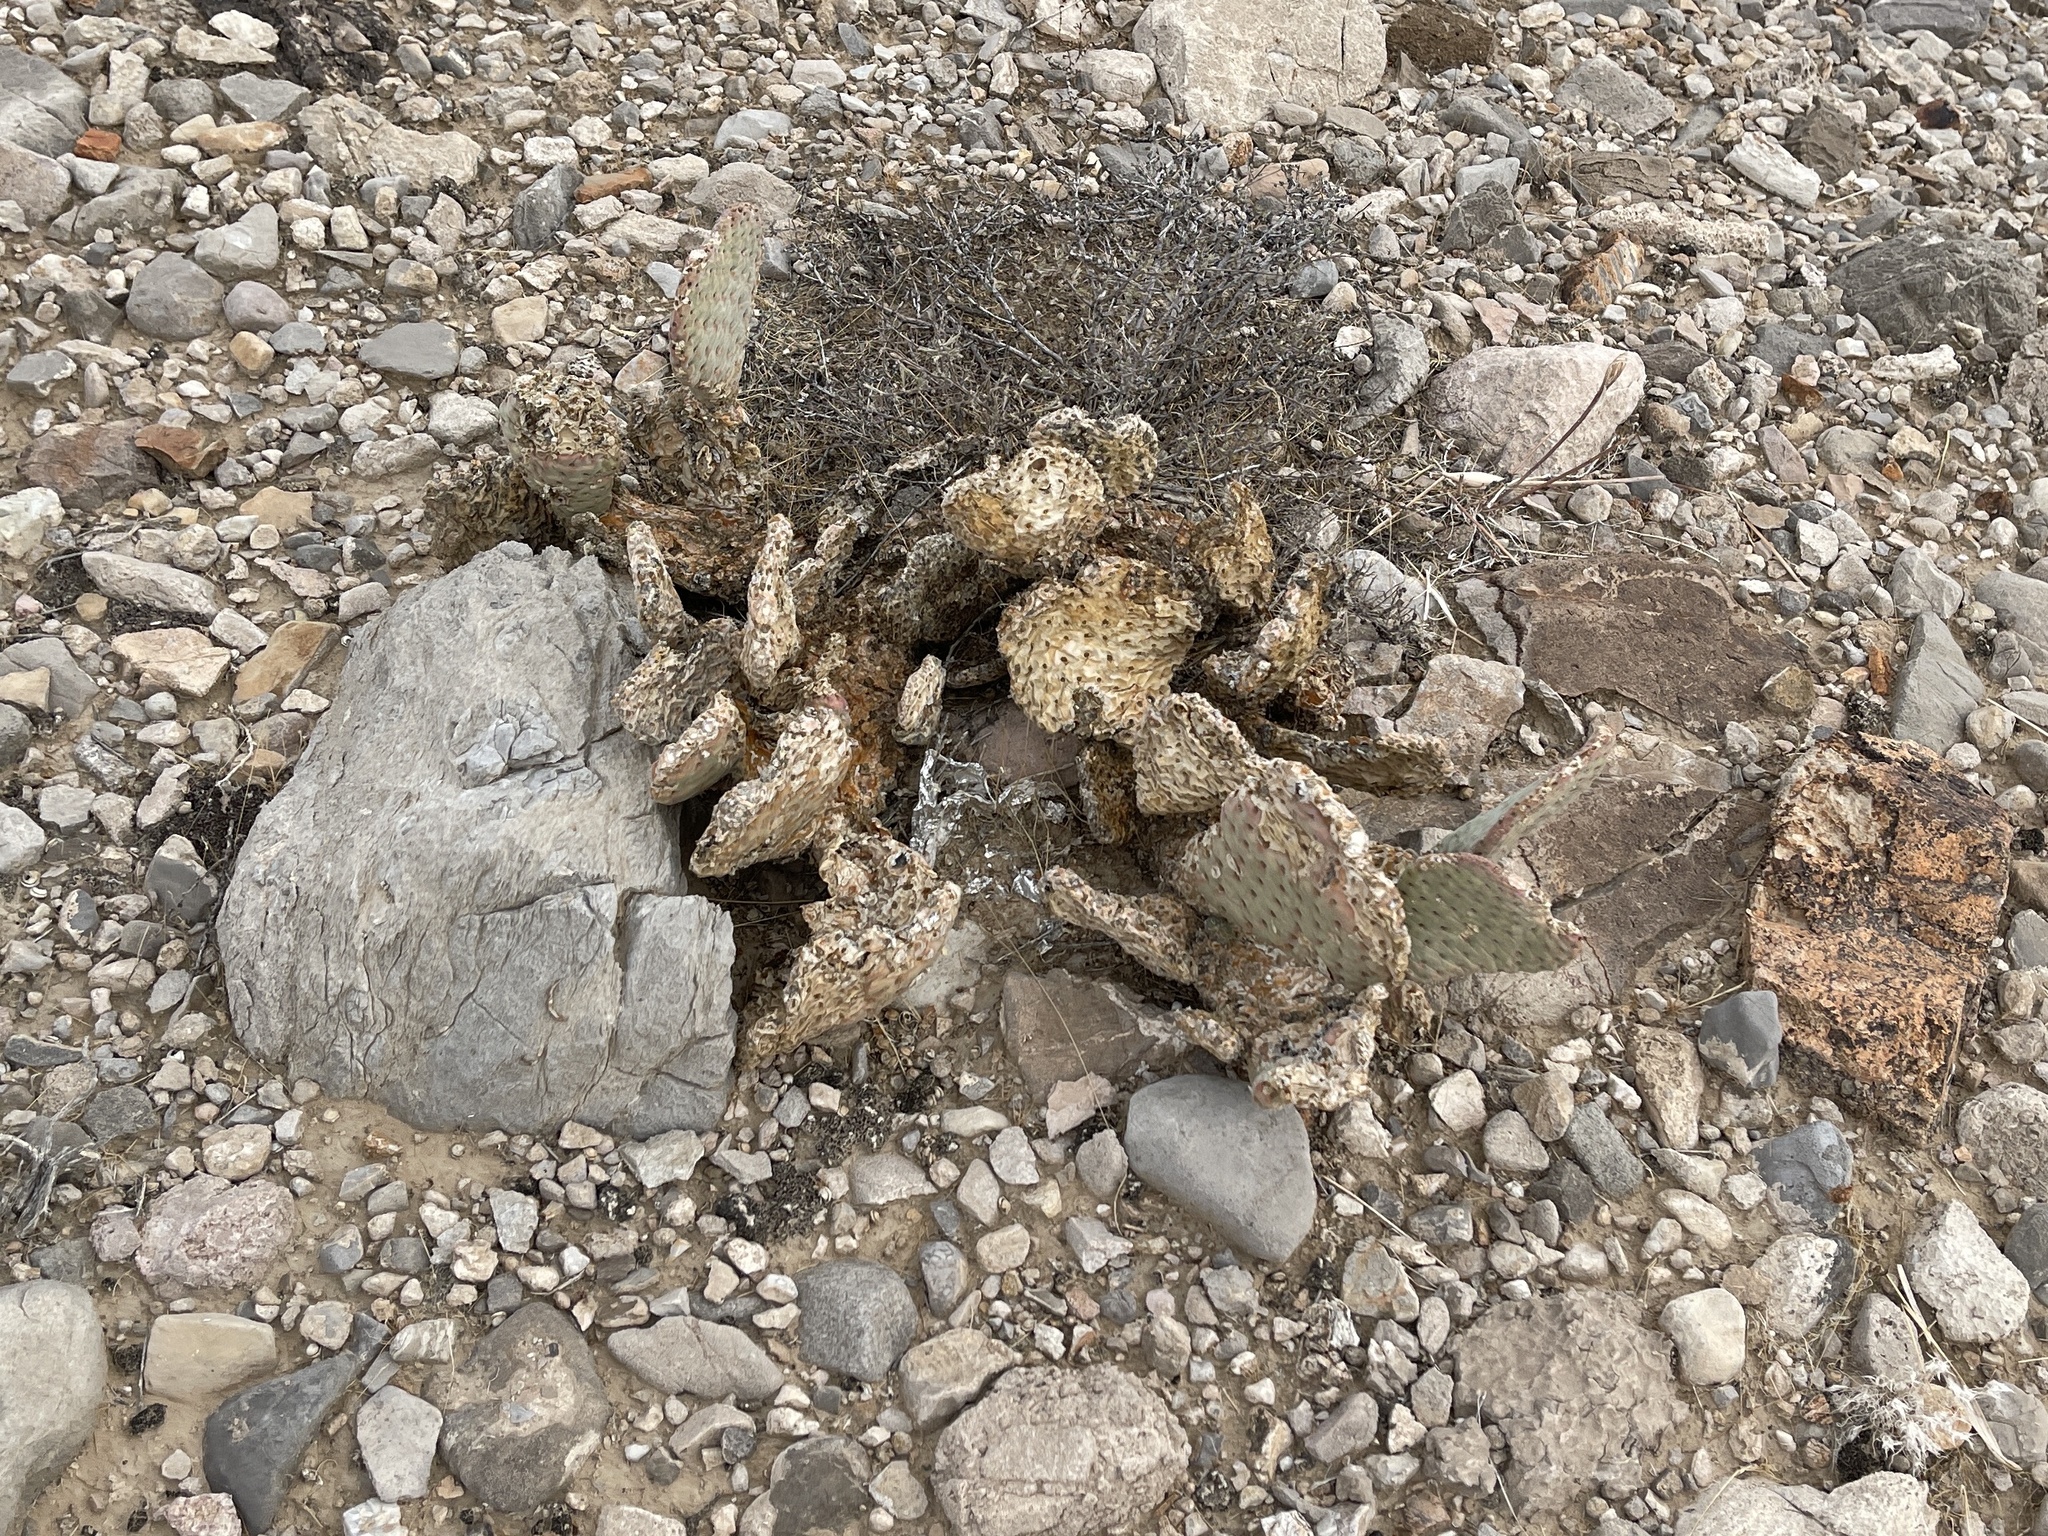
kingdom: Plantae
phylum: Tracheophyta
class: Magnoliopsida
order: Caryophyllales
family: Cactaceae
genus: Opuntia
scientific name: Opuntia basilaris
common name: Beavertail prickly-pear
